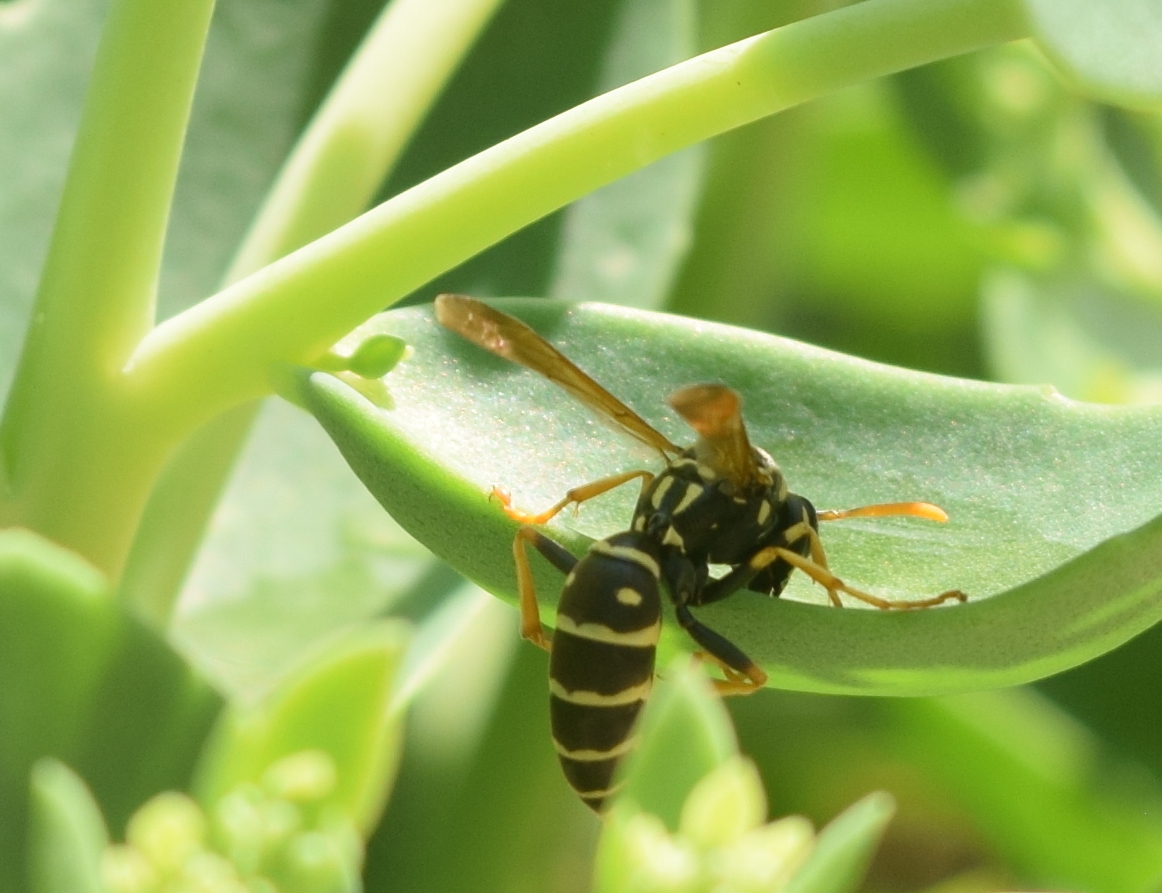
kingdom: Animalia
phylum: Arthropoda
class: Insecta
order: Hymenoptera
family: Eumenidae
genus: Polistes
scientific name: Polistes dominula
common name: Paper wasp
